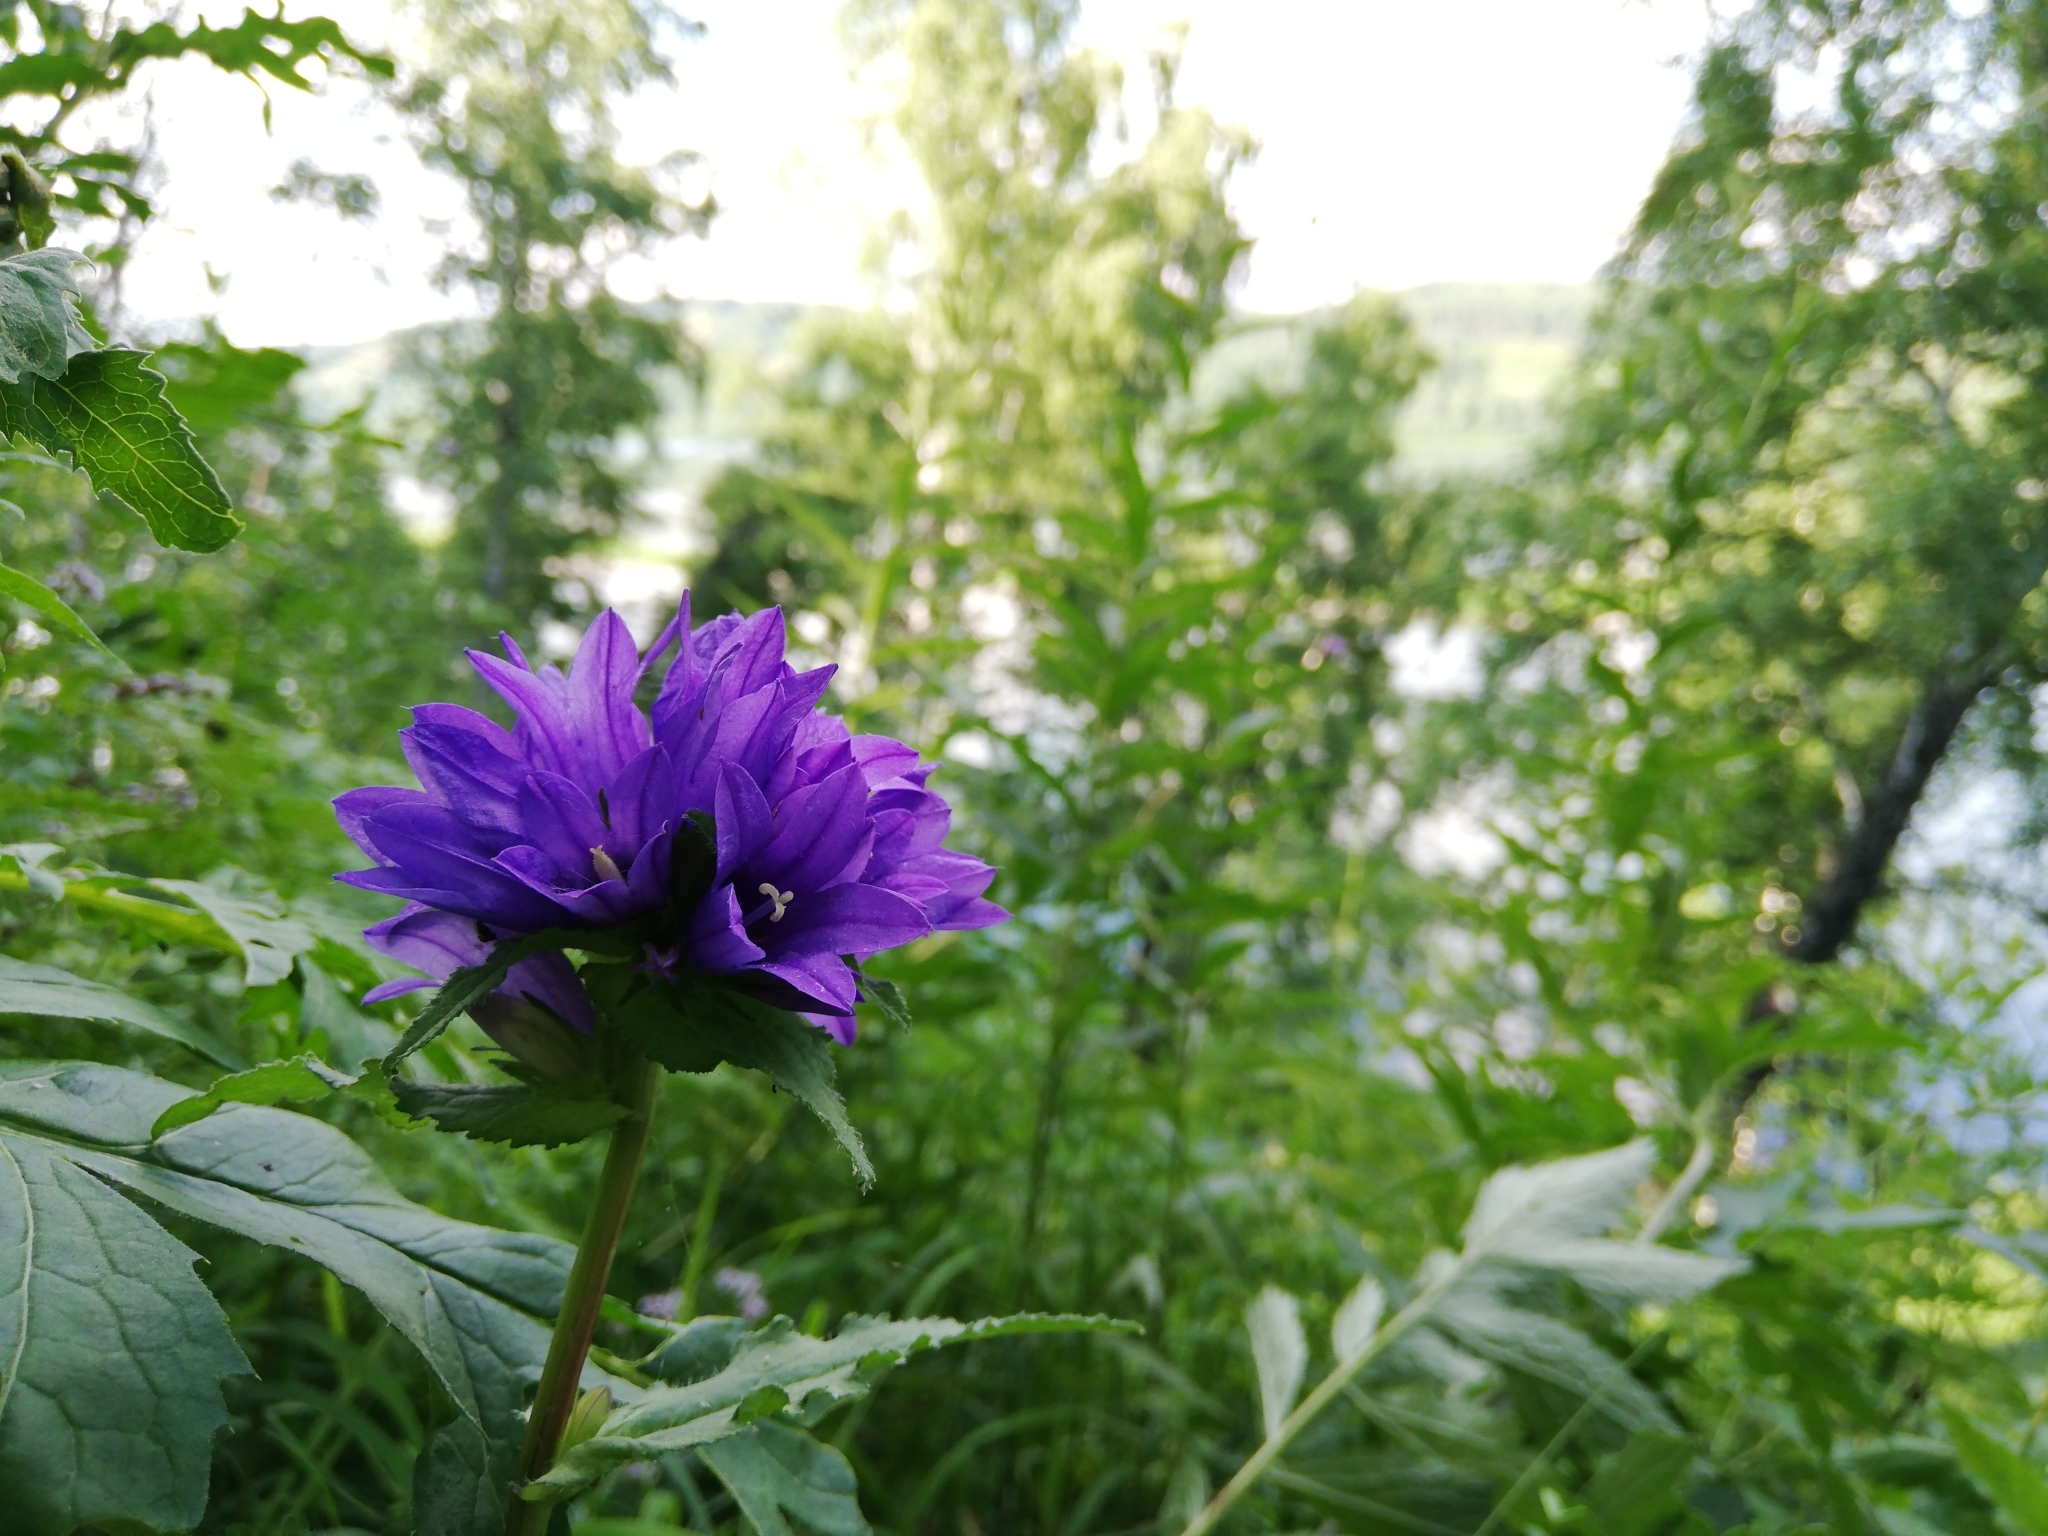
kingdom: Plantae
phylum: Tracheophyta
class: Magnoliopsida
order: Asterales
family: Campanulaceae
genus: Campanula
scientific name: Campanula glomerata
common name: Clustered bellflower
